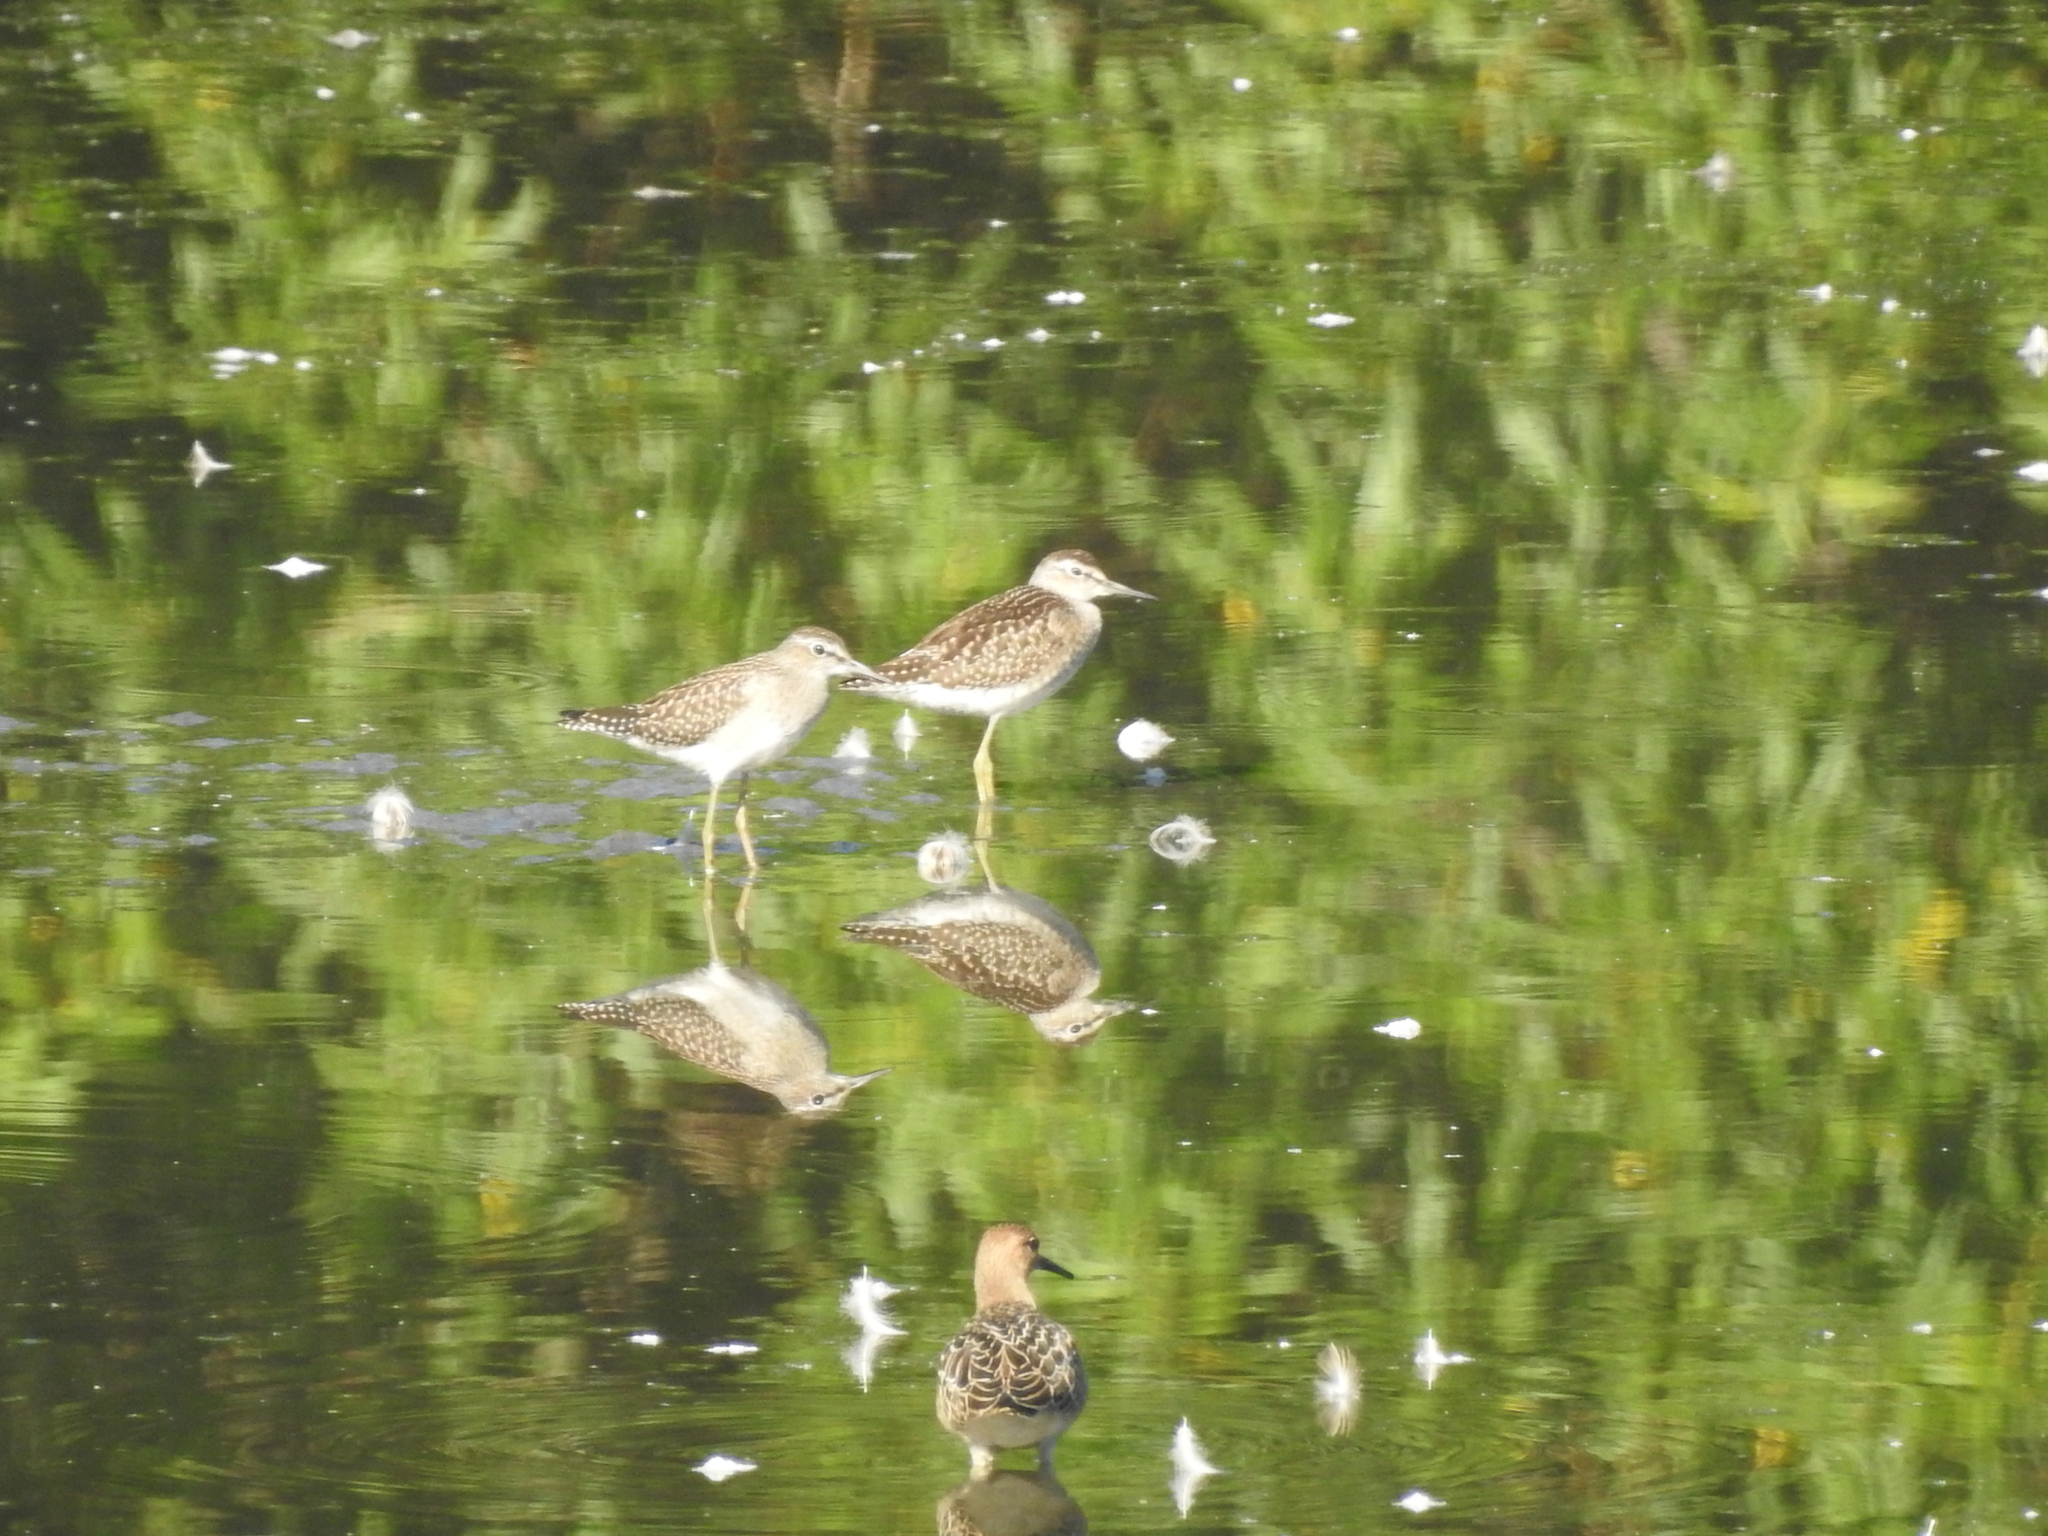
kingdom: Animalia
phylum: Chordata
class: Aves
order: Charadriiformes
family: Scolopacidae
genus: Tringa
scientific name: Tringa glareola
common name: Wood sandpiper
